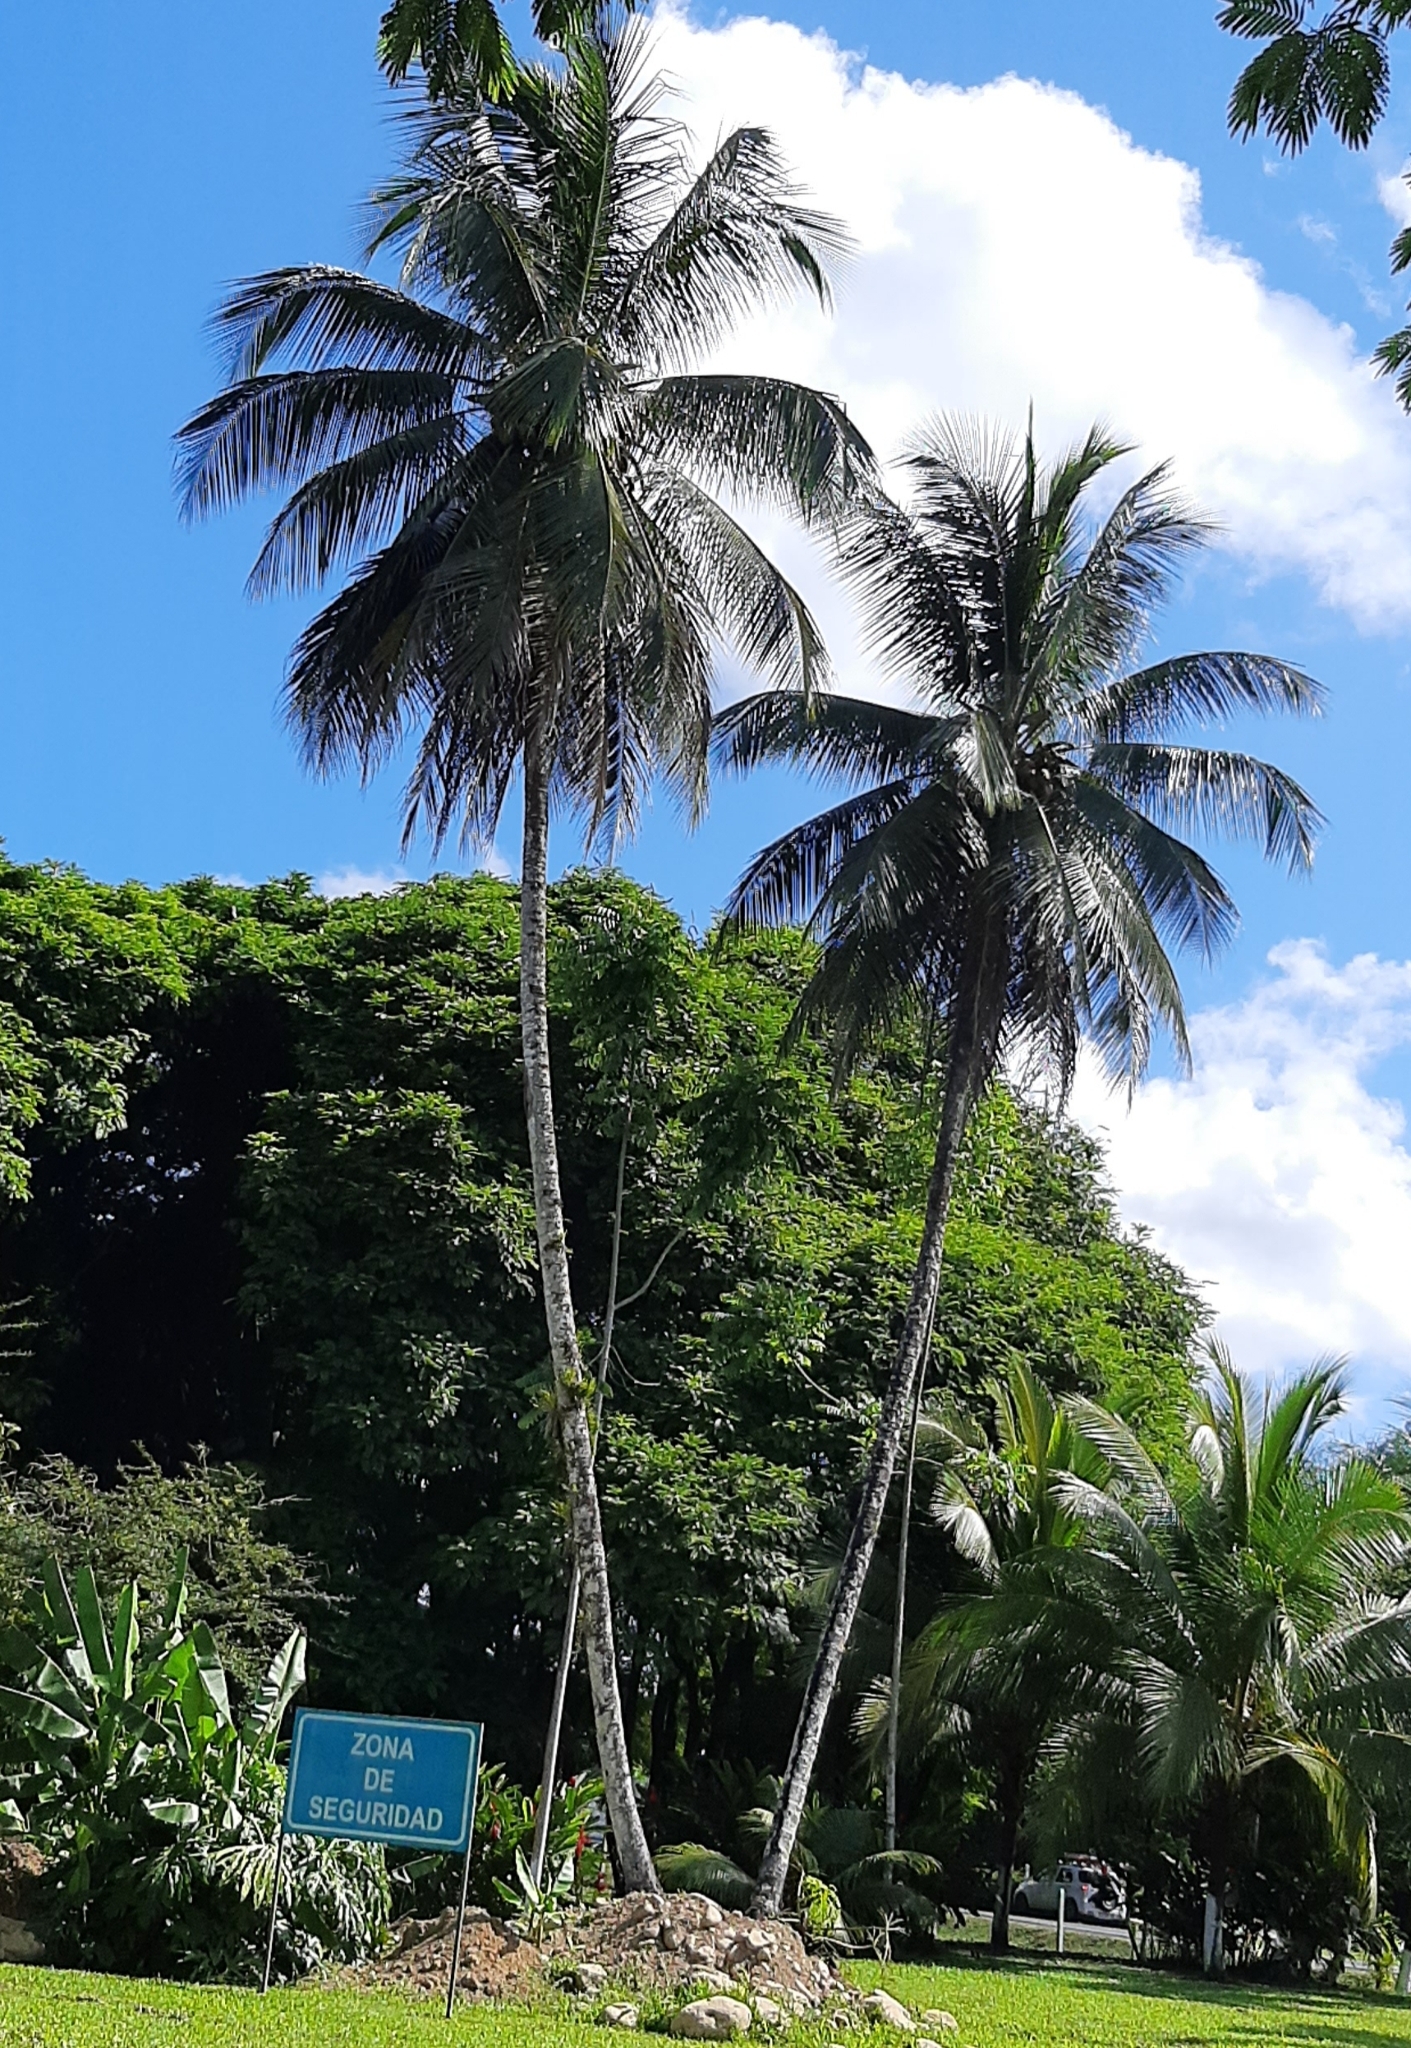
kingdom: Plantae
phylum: Tracheophyta
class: Liliopsida
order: Arecales
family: Arecaceae
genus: Cocos
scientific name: Cocos nucifera
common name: Coconut palm
